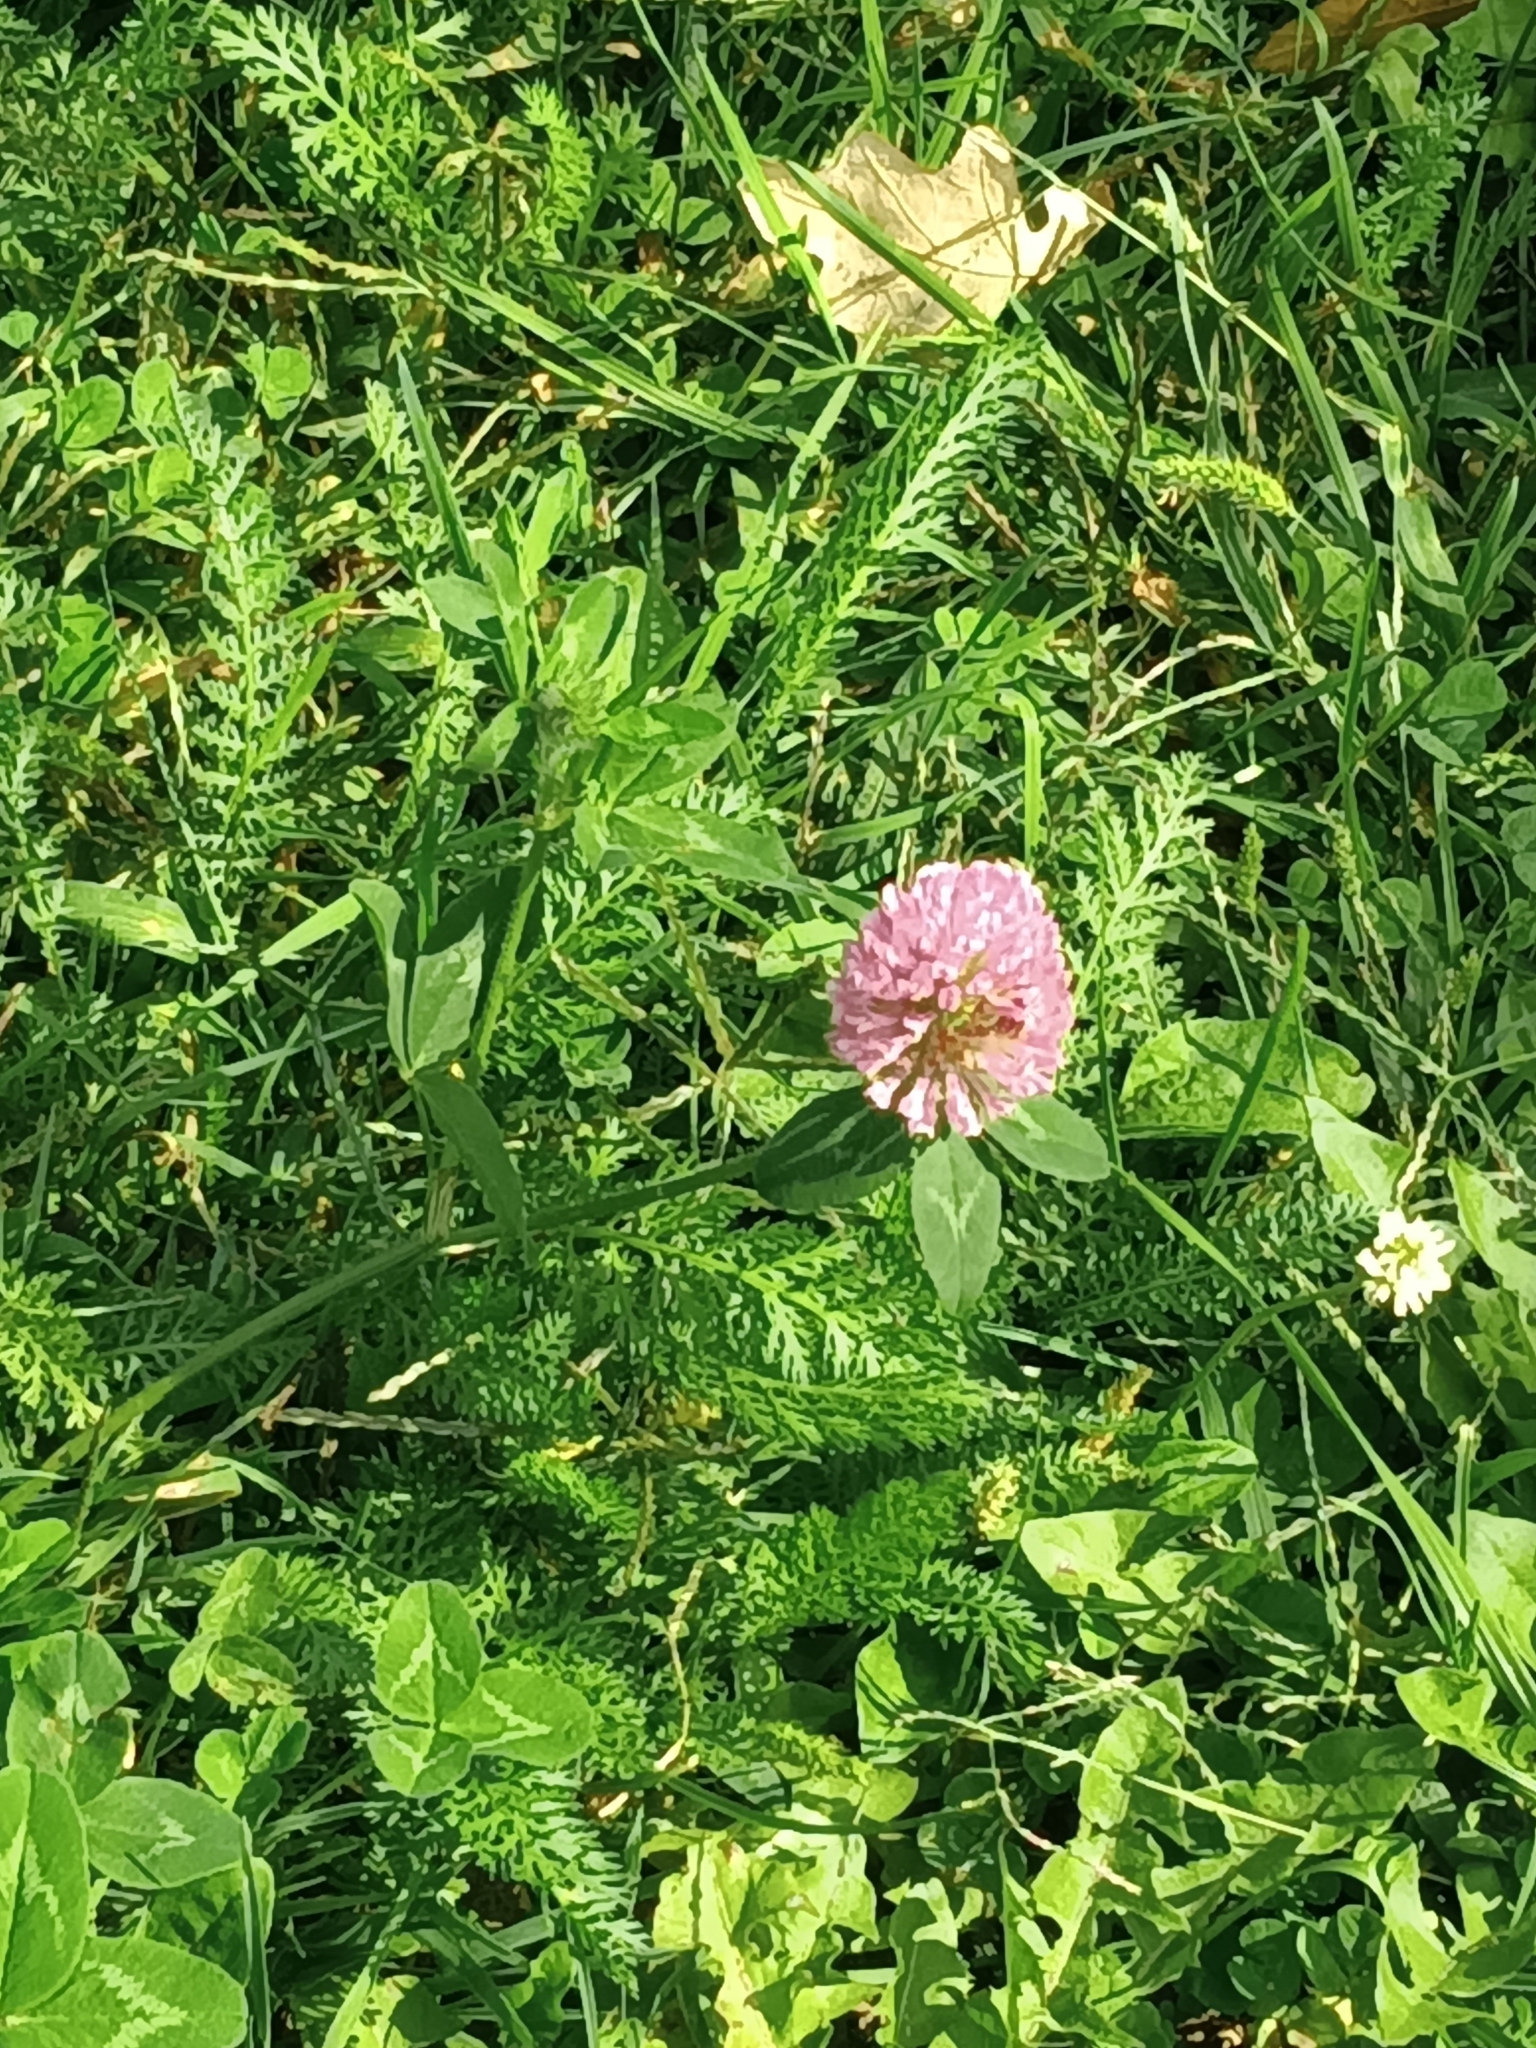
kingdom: Plantae
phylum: Tracheophyta
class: Magnoliopsida
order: Fabales
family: Fabaceae
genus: Trifolium
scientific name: Trifolium pratense
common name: Red clover
